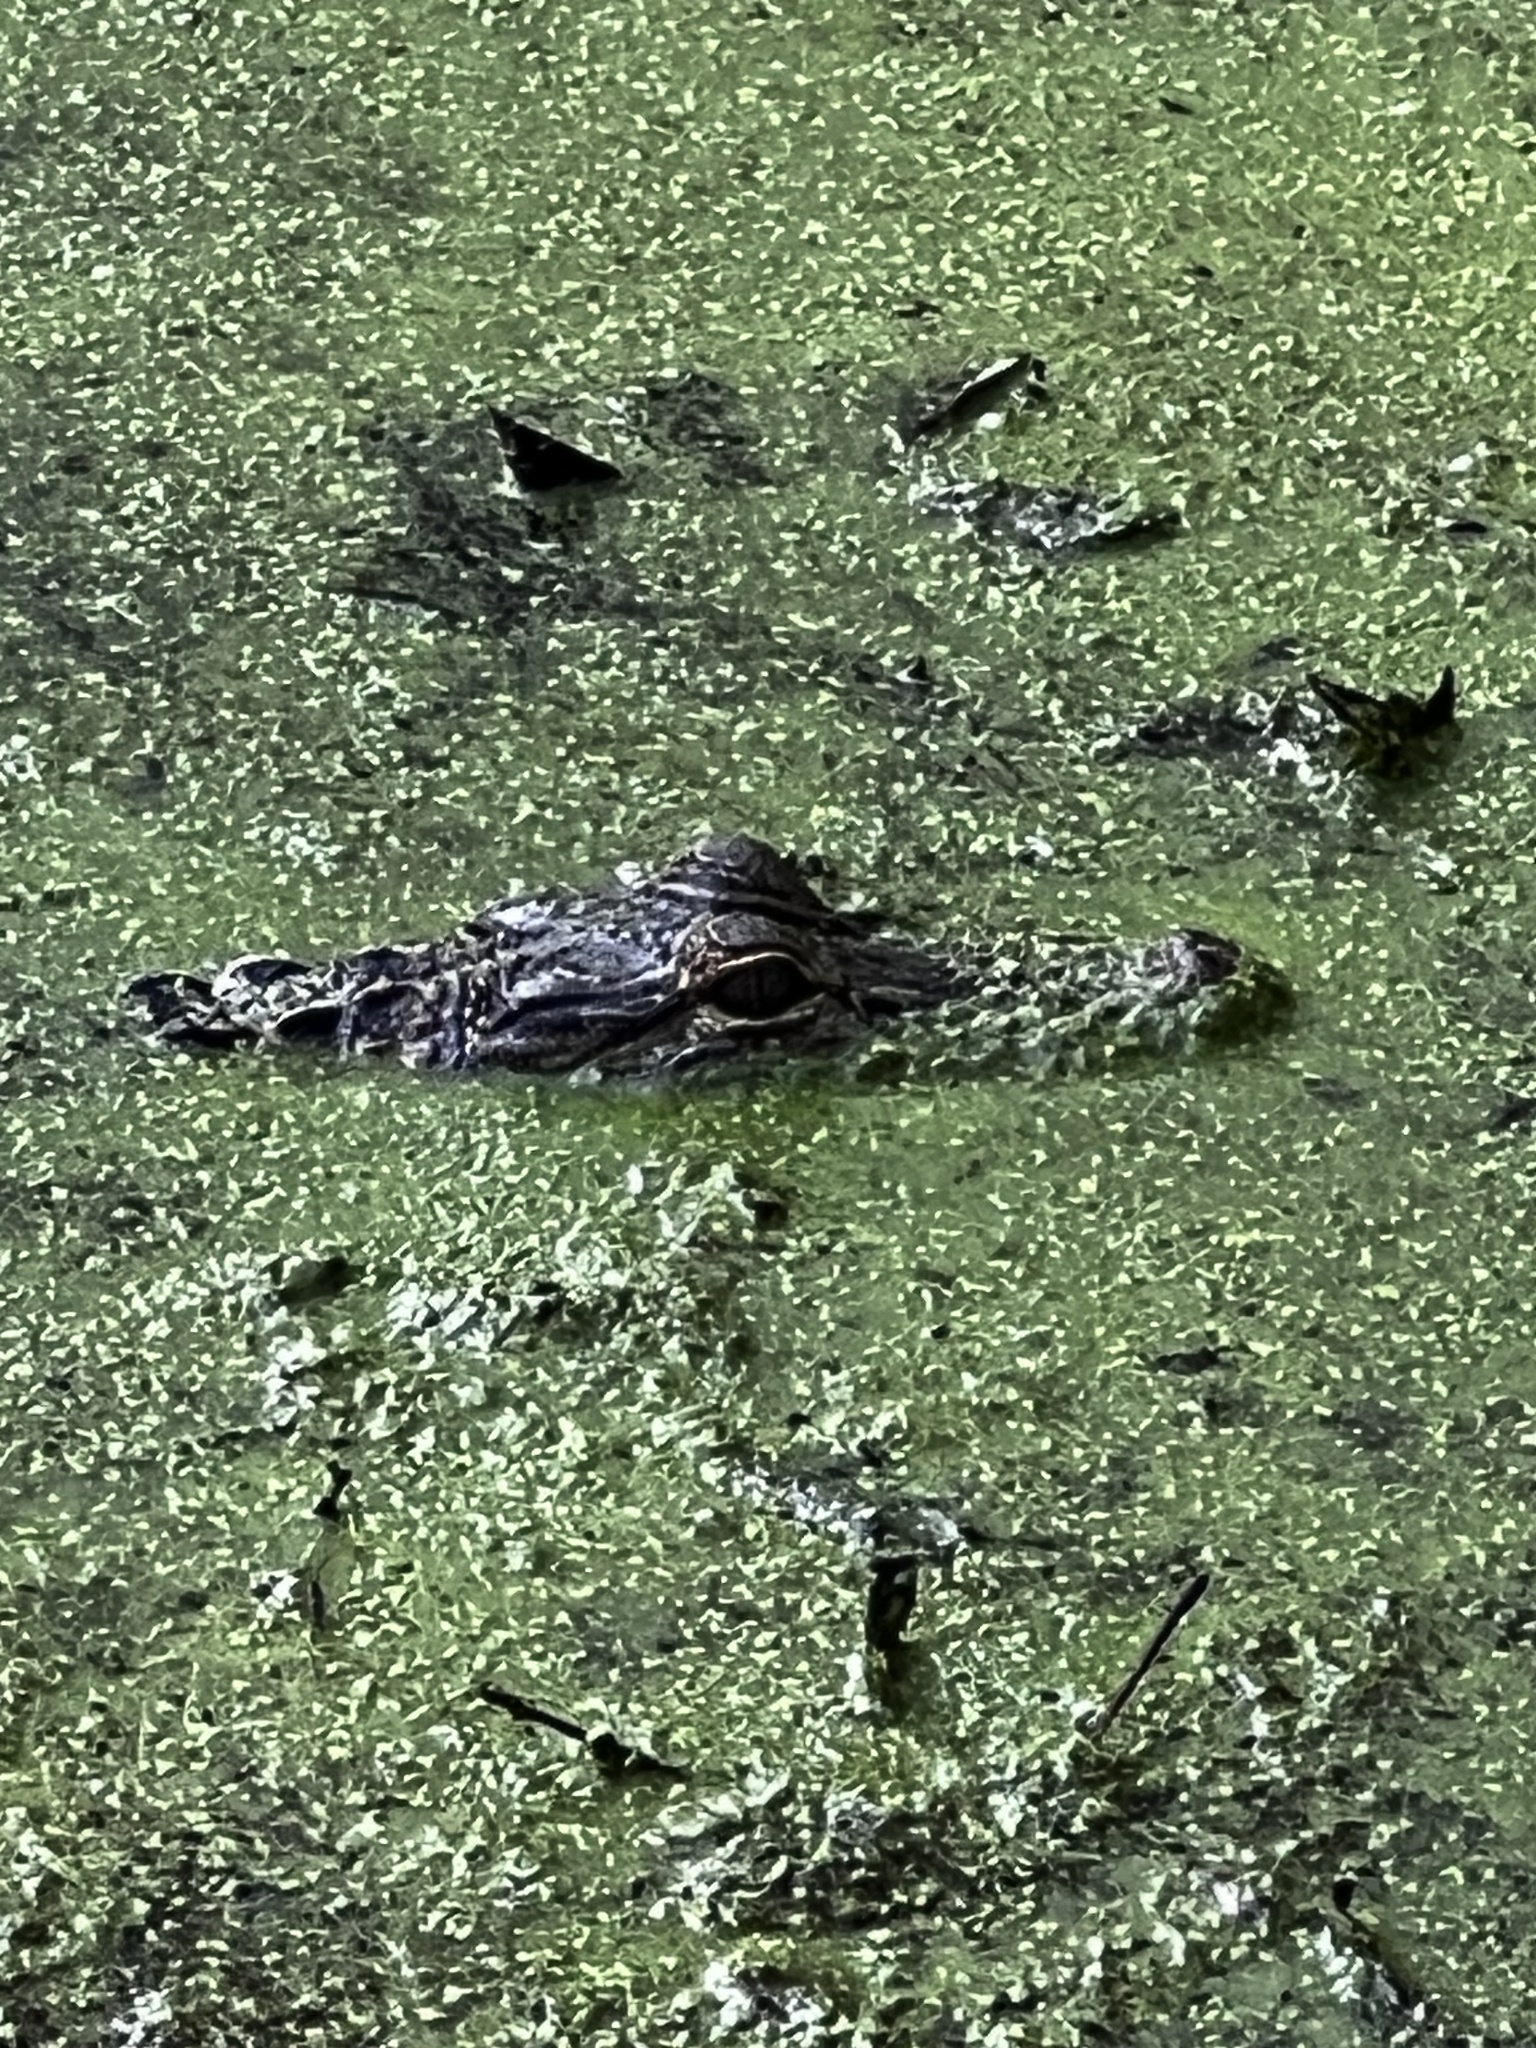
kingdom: Animalia
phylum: Chordata
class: Crocodylia
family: Alligatoridae
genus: Alligator
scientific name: Alligator mississippiensis
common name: American alligator
